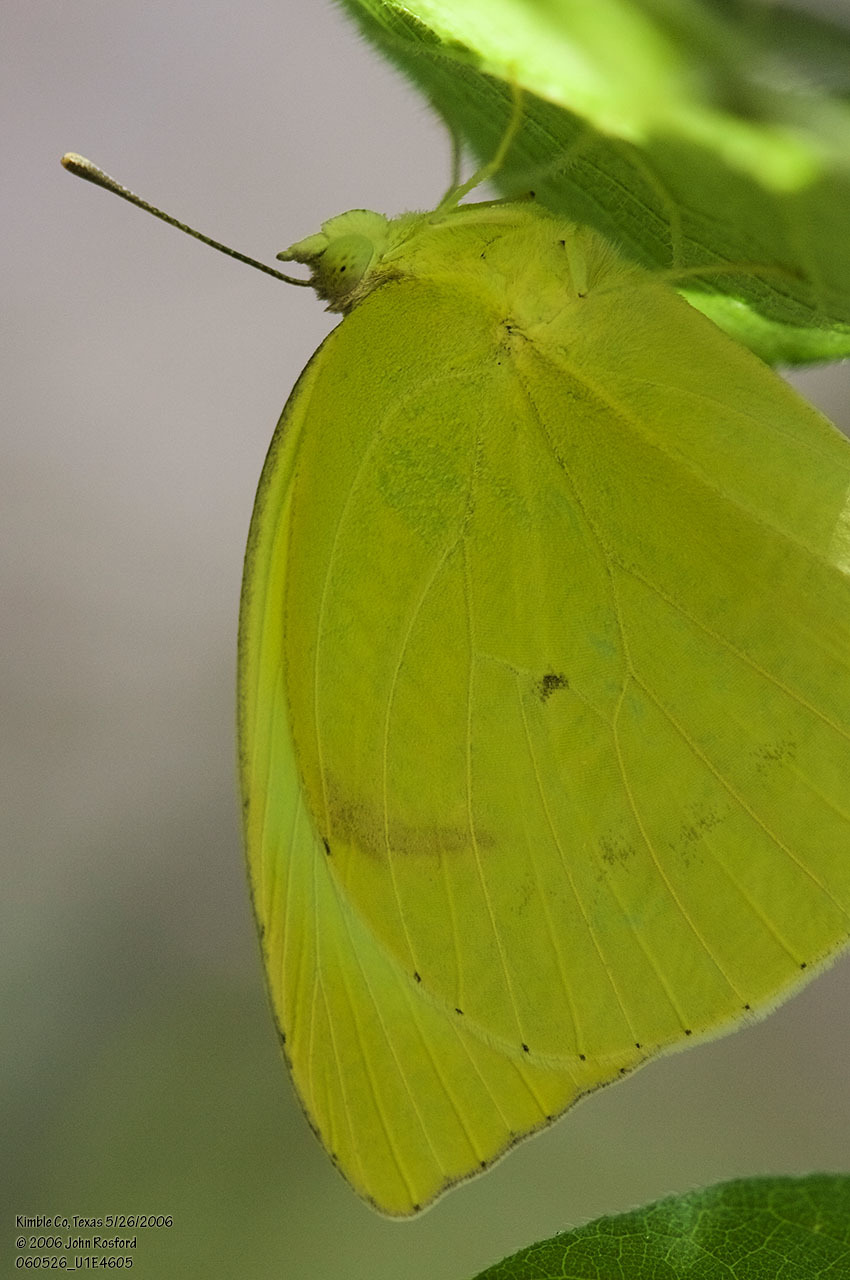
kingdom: Animalia
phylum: Arthropoda
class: Insecta
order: Lepidoptera
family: Pieridae
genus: Kricogonia
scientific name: Kricogonia lyside
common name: Guayacan sulphur,
